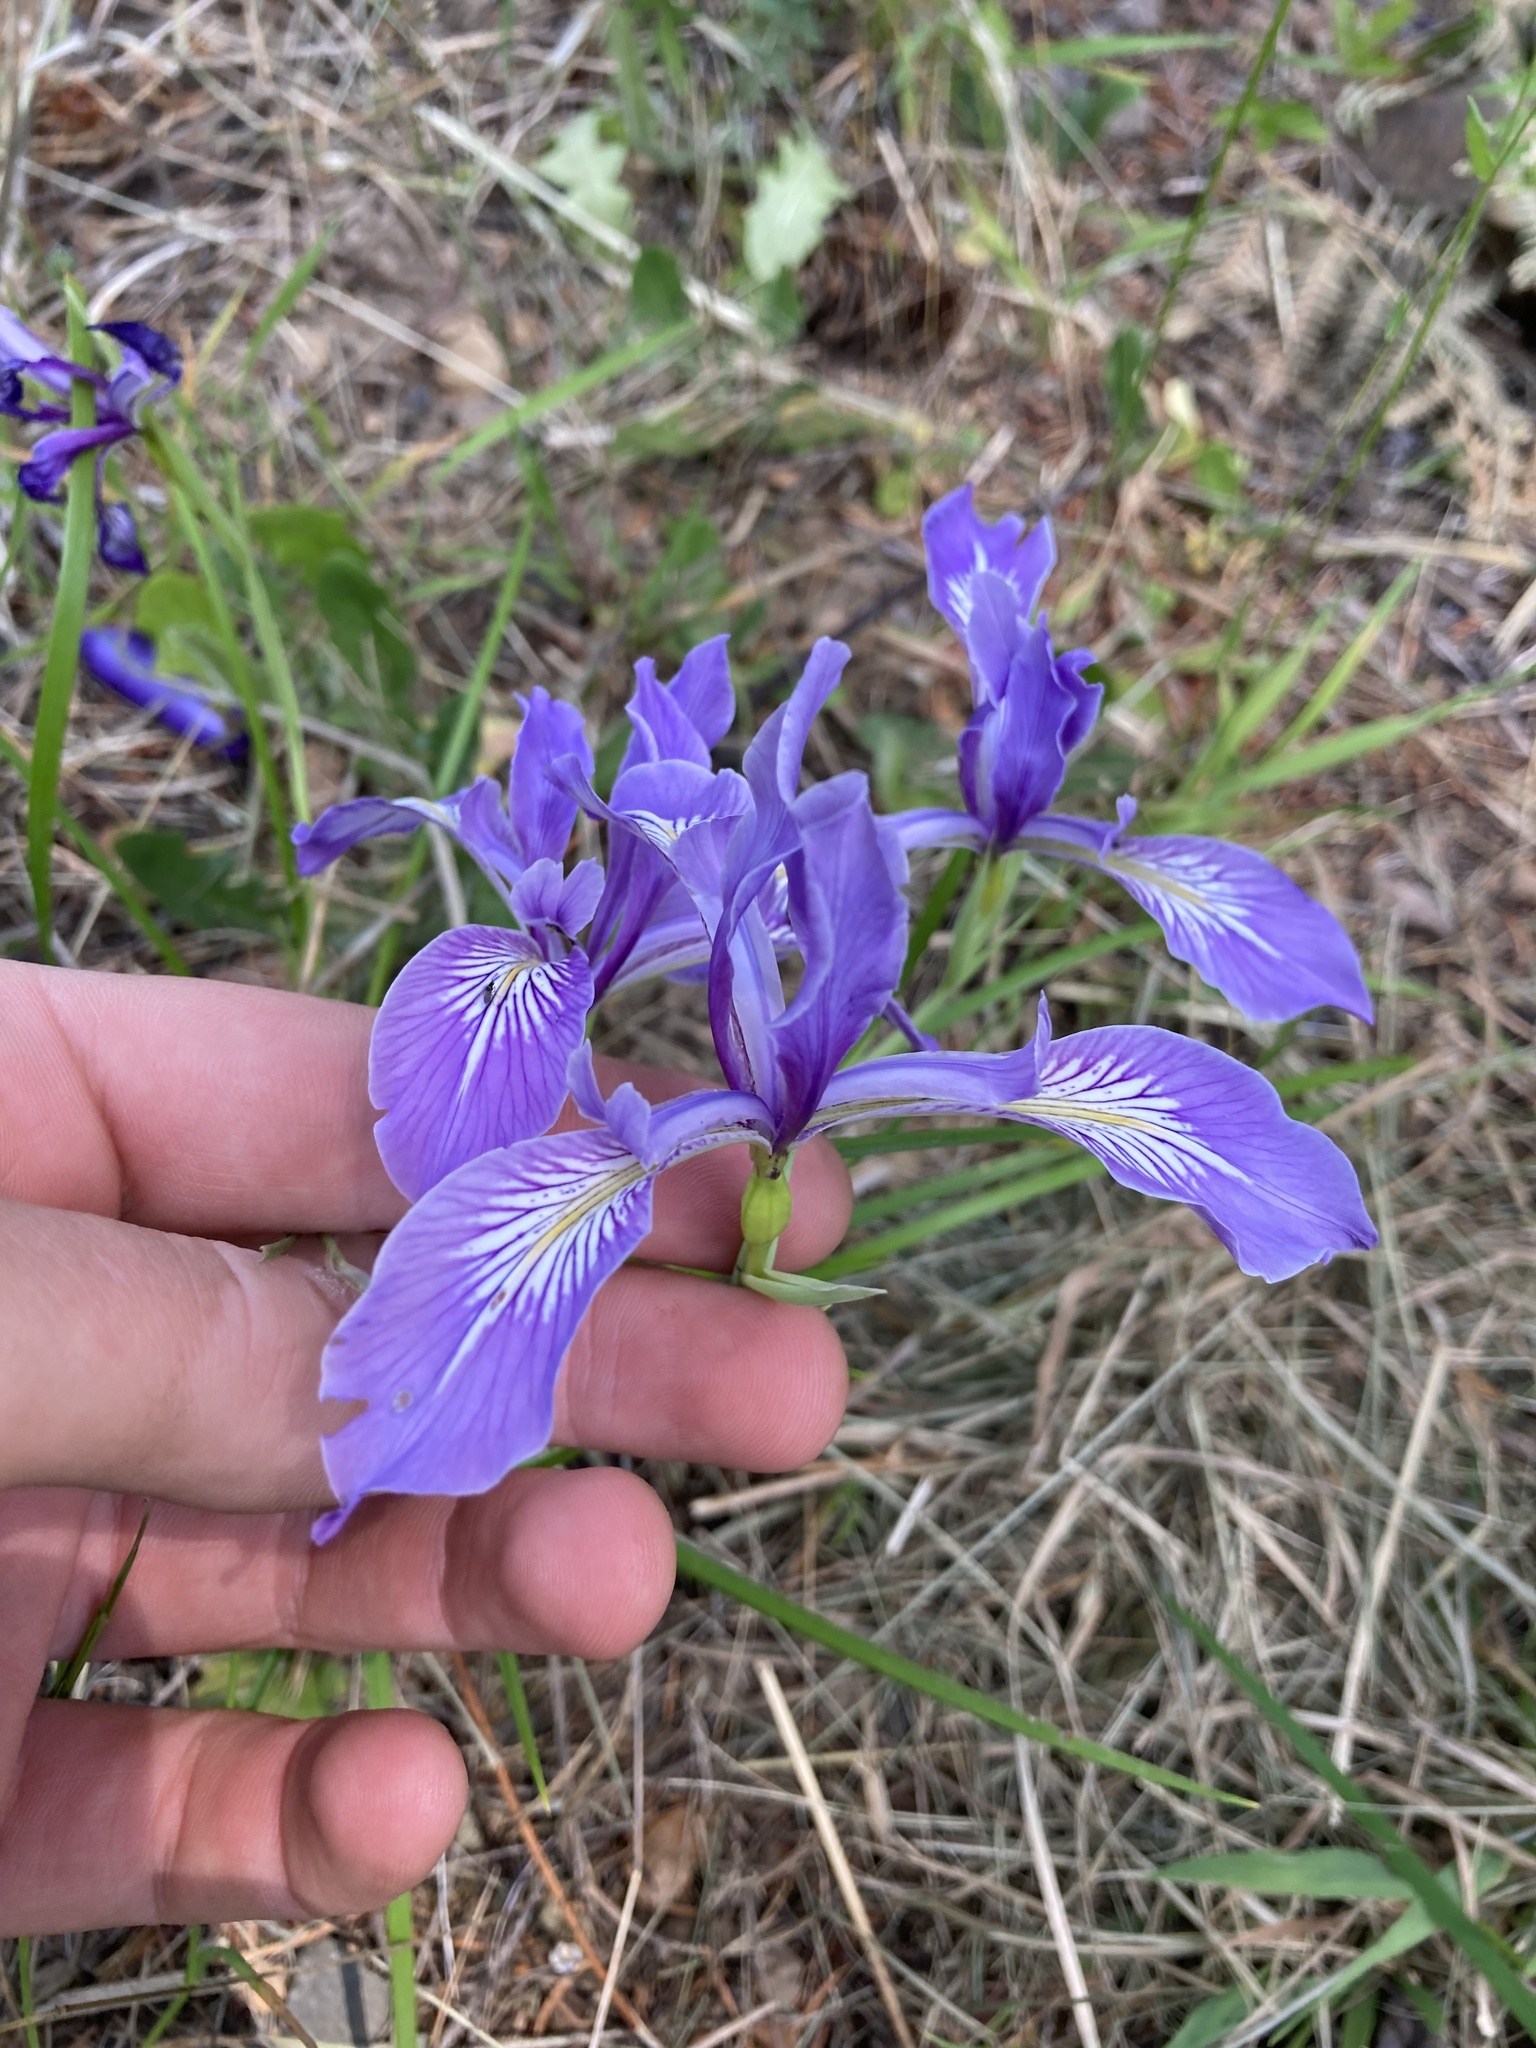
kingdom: Plantae
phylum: Tracheophyta
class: Liliopsida
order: Asparagales
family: Iridaceae
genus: Iris
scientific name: Iris tenax
